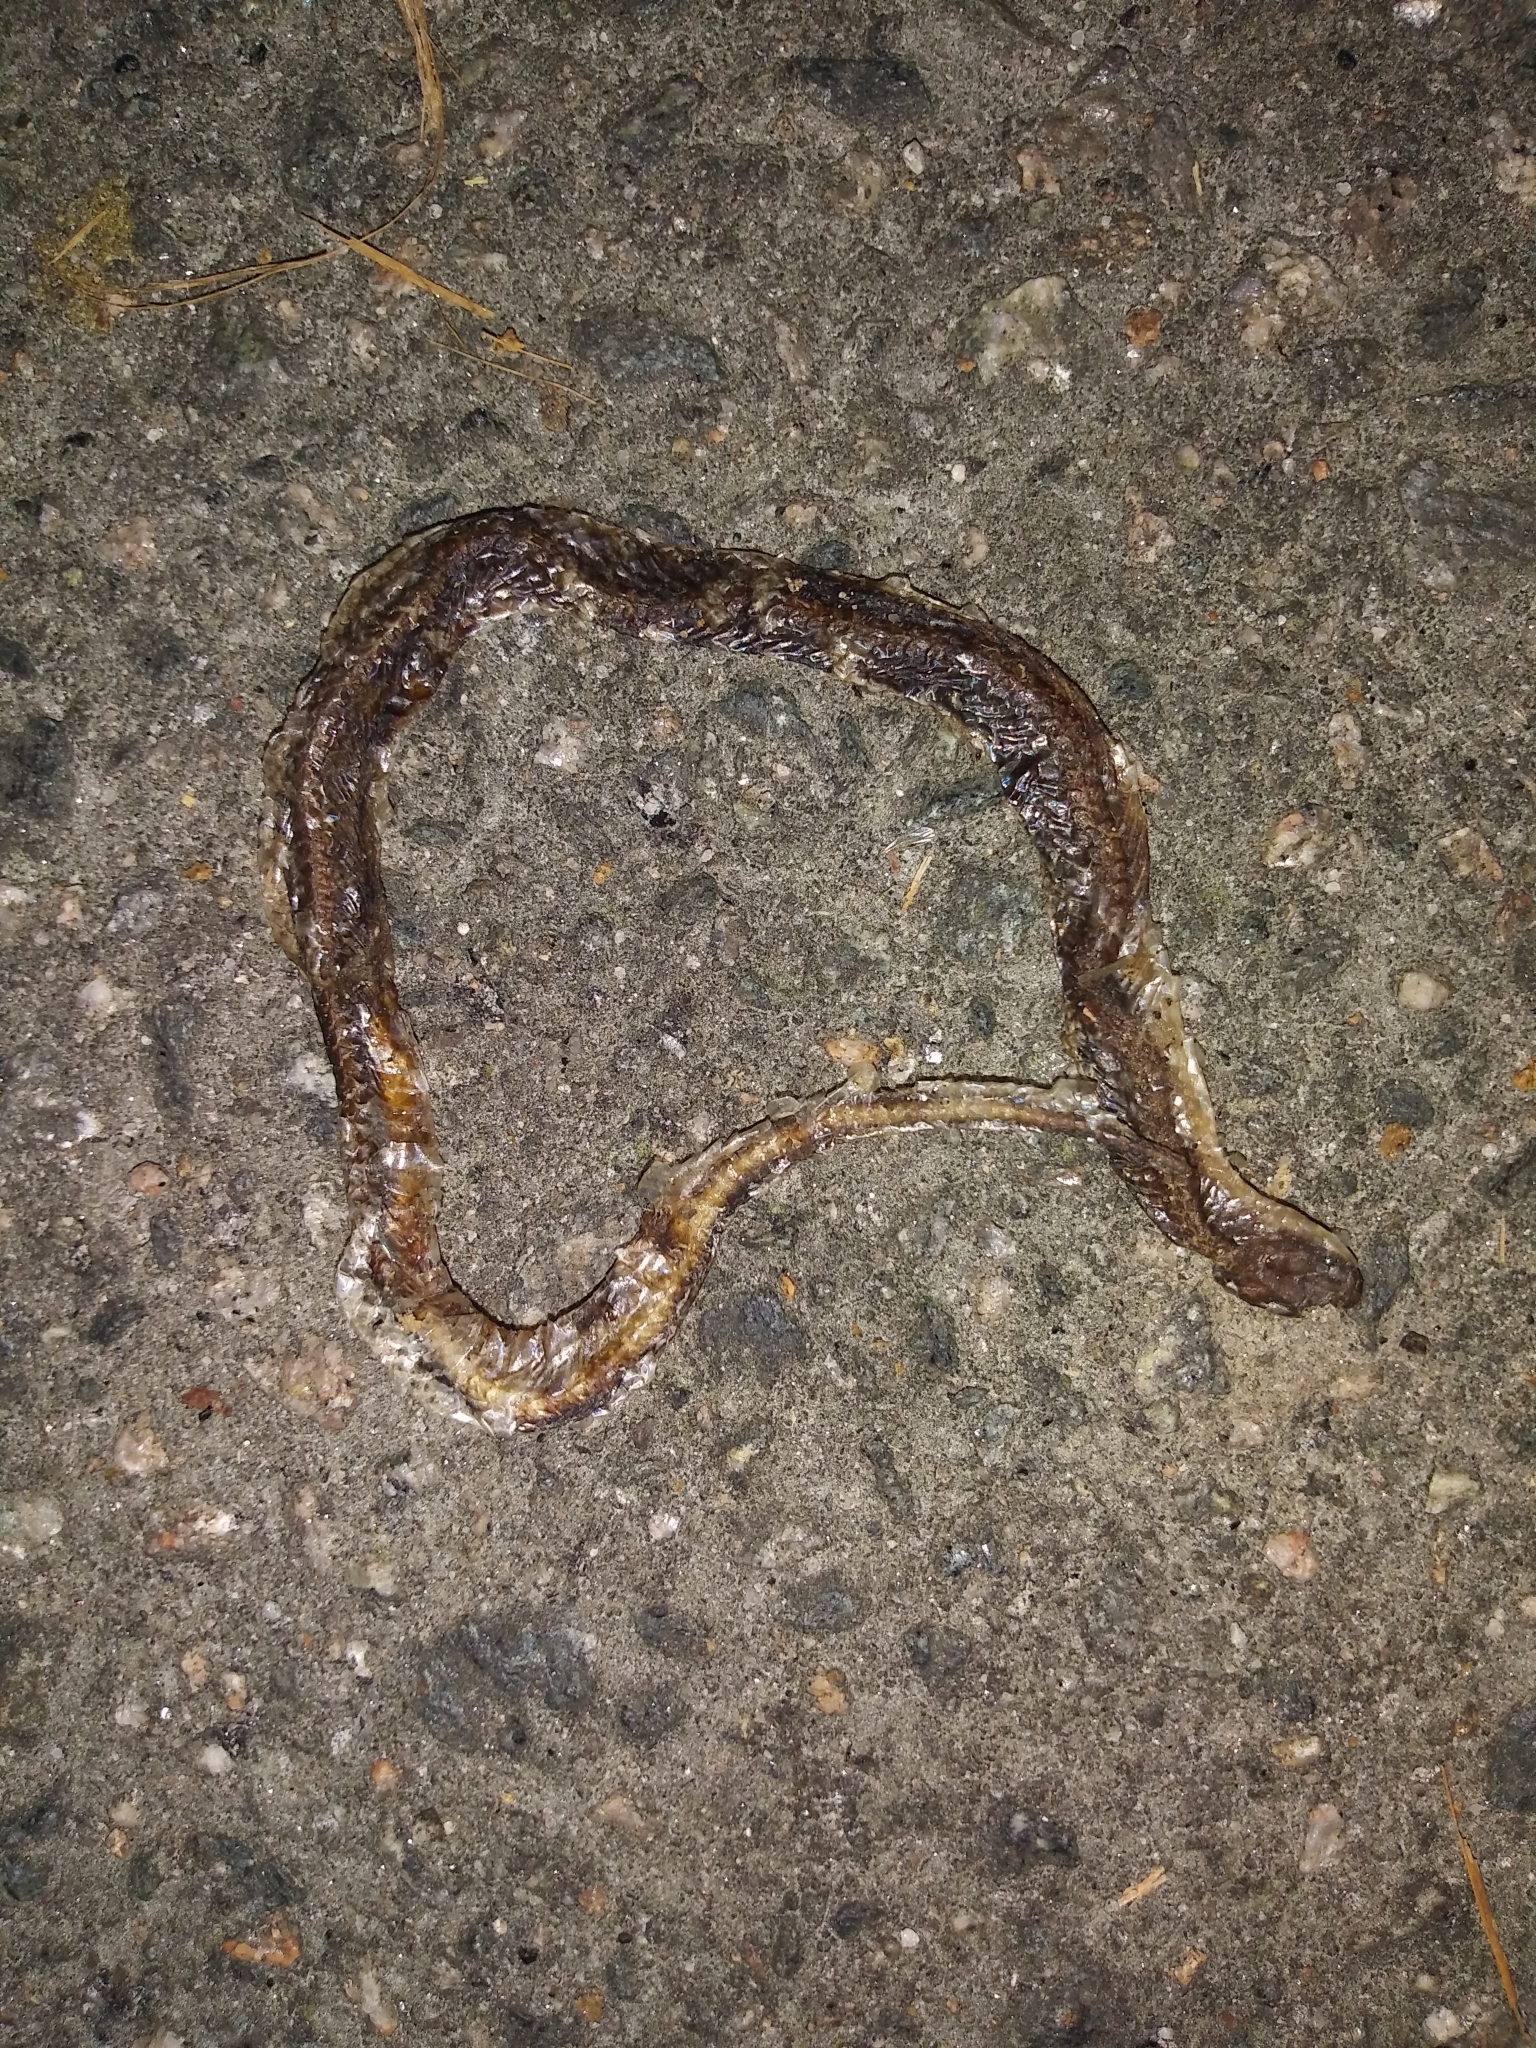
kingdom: Animalia
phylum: Chordata
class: Squamata
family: Colubridae
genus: Carphophis
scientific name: Carphophis amoenus
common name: Eastern worm snake
